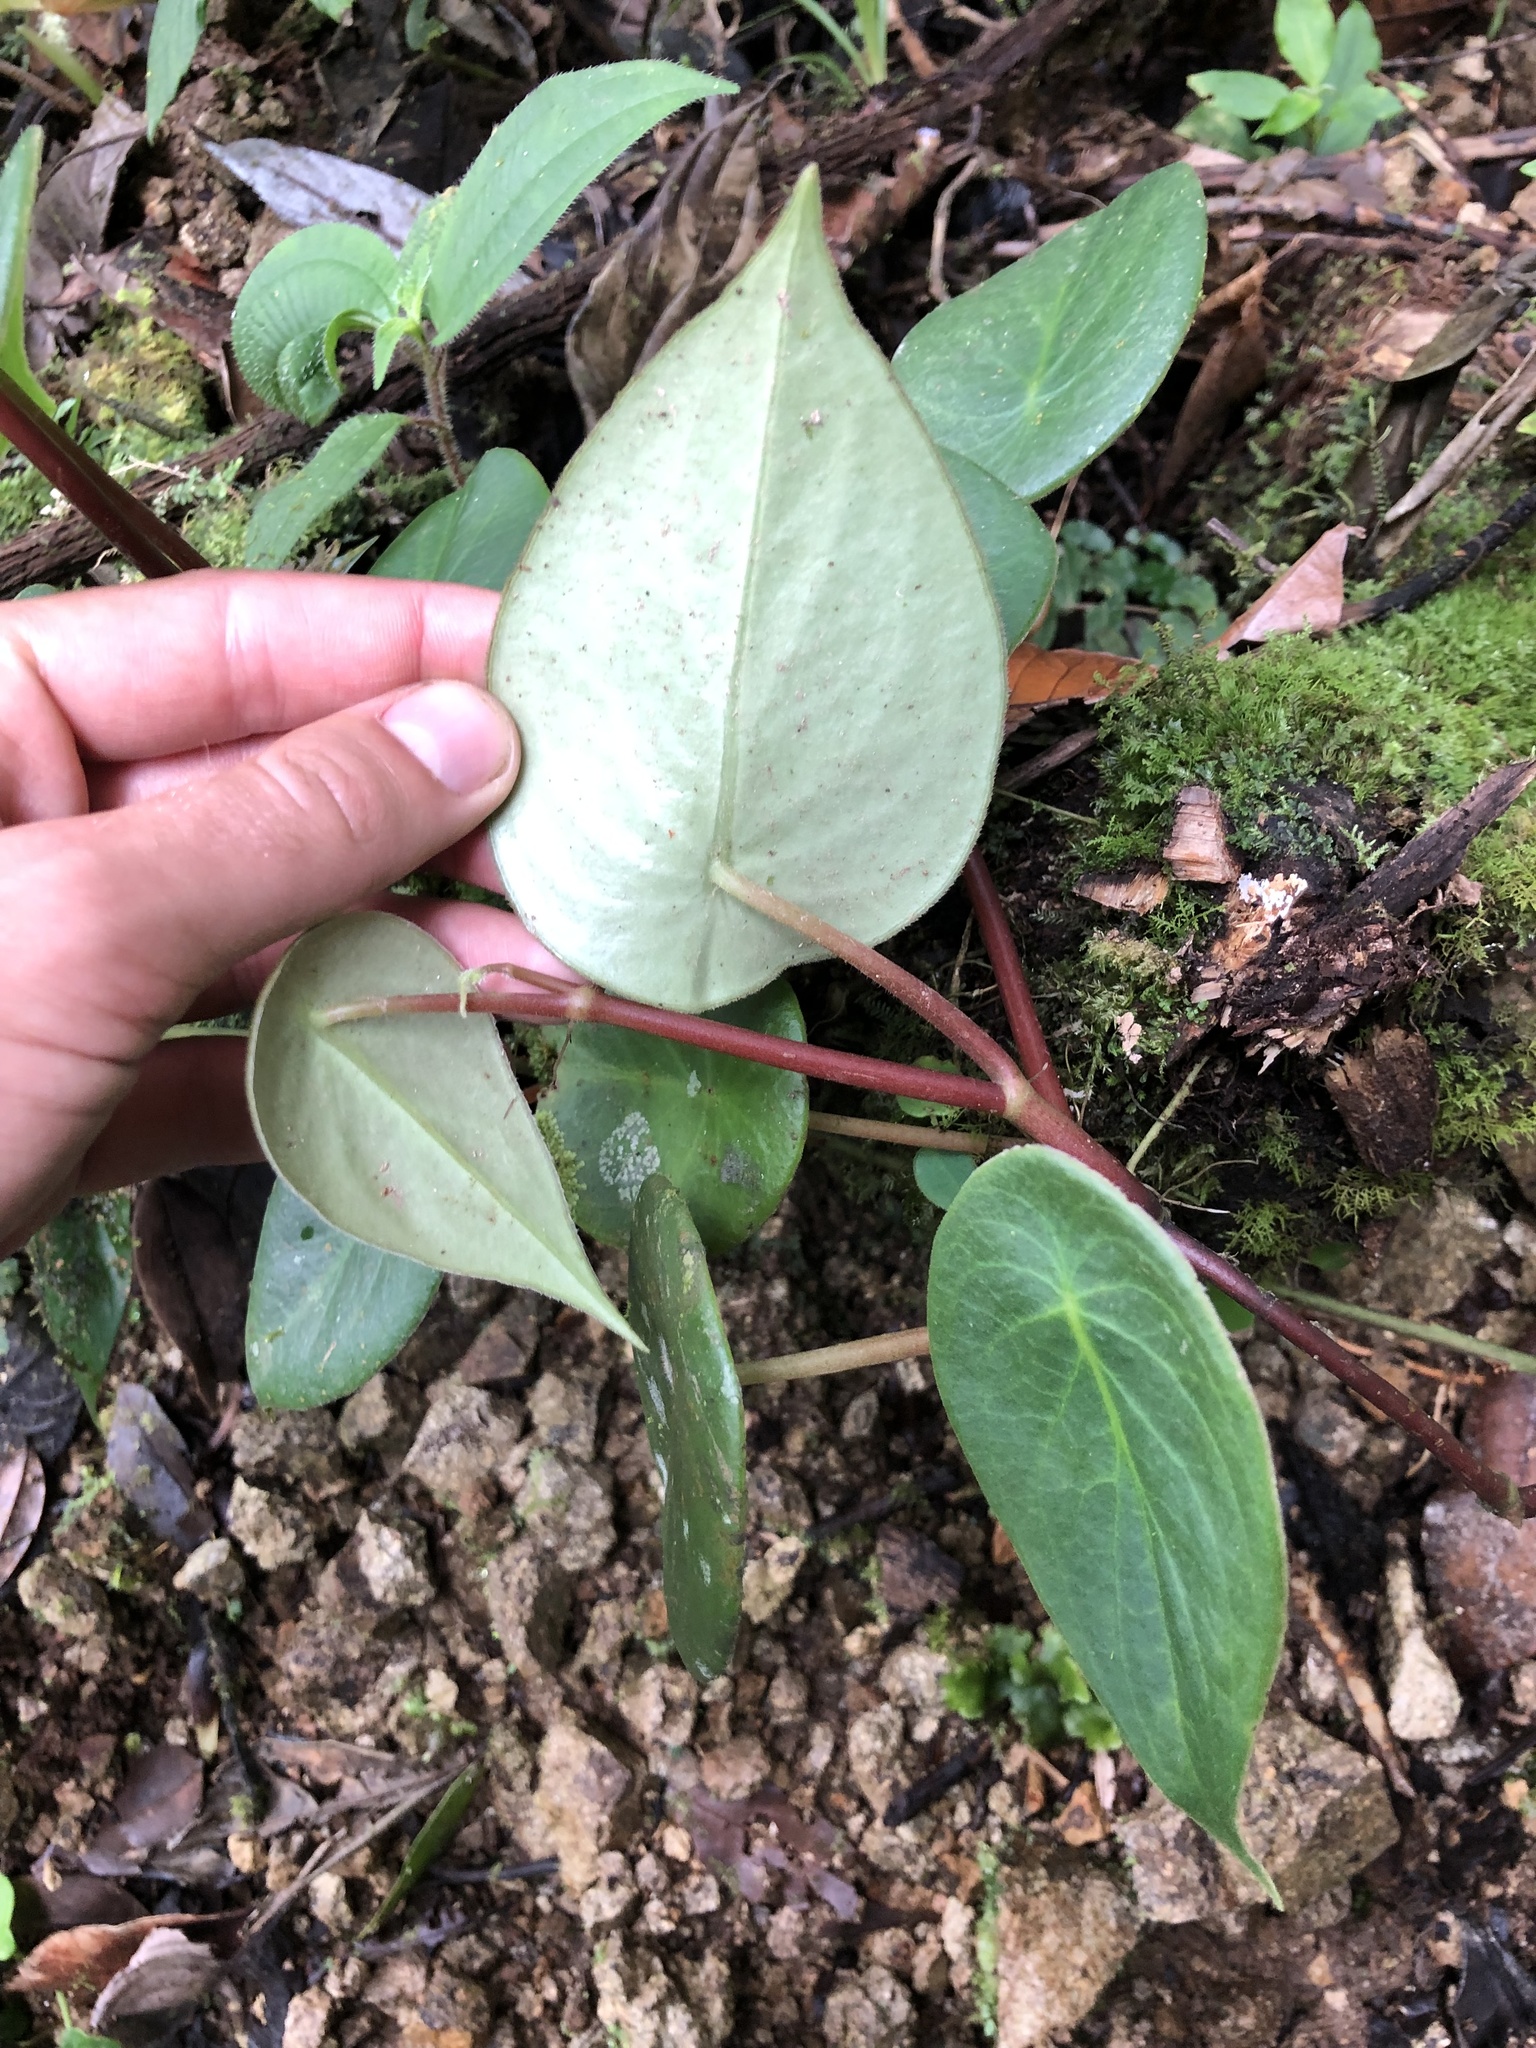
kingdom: Plantae
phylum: Tracheophyta
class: Magnoliopsida
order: Piperales
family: Piperaceae
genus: Peperomia
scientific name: Peperomia choroniana
